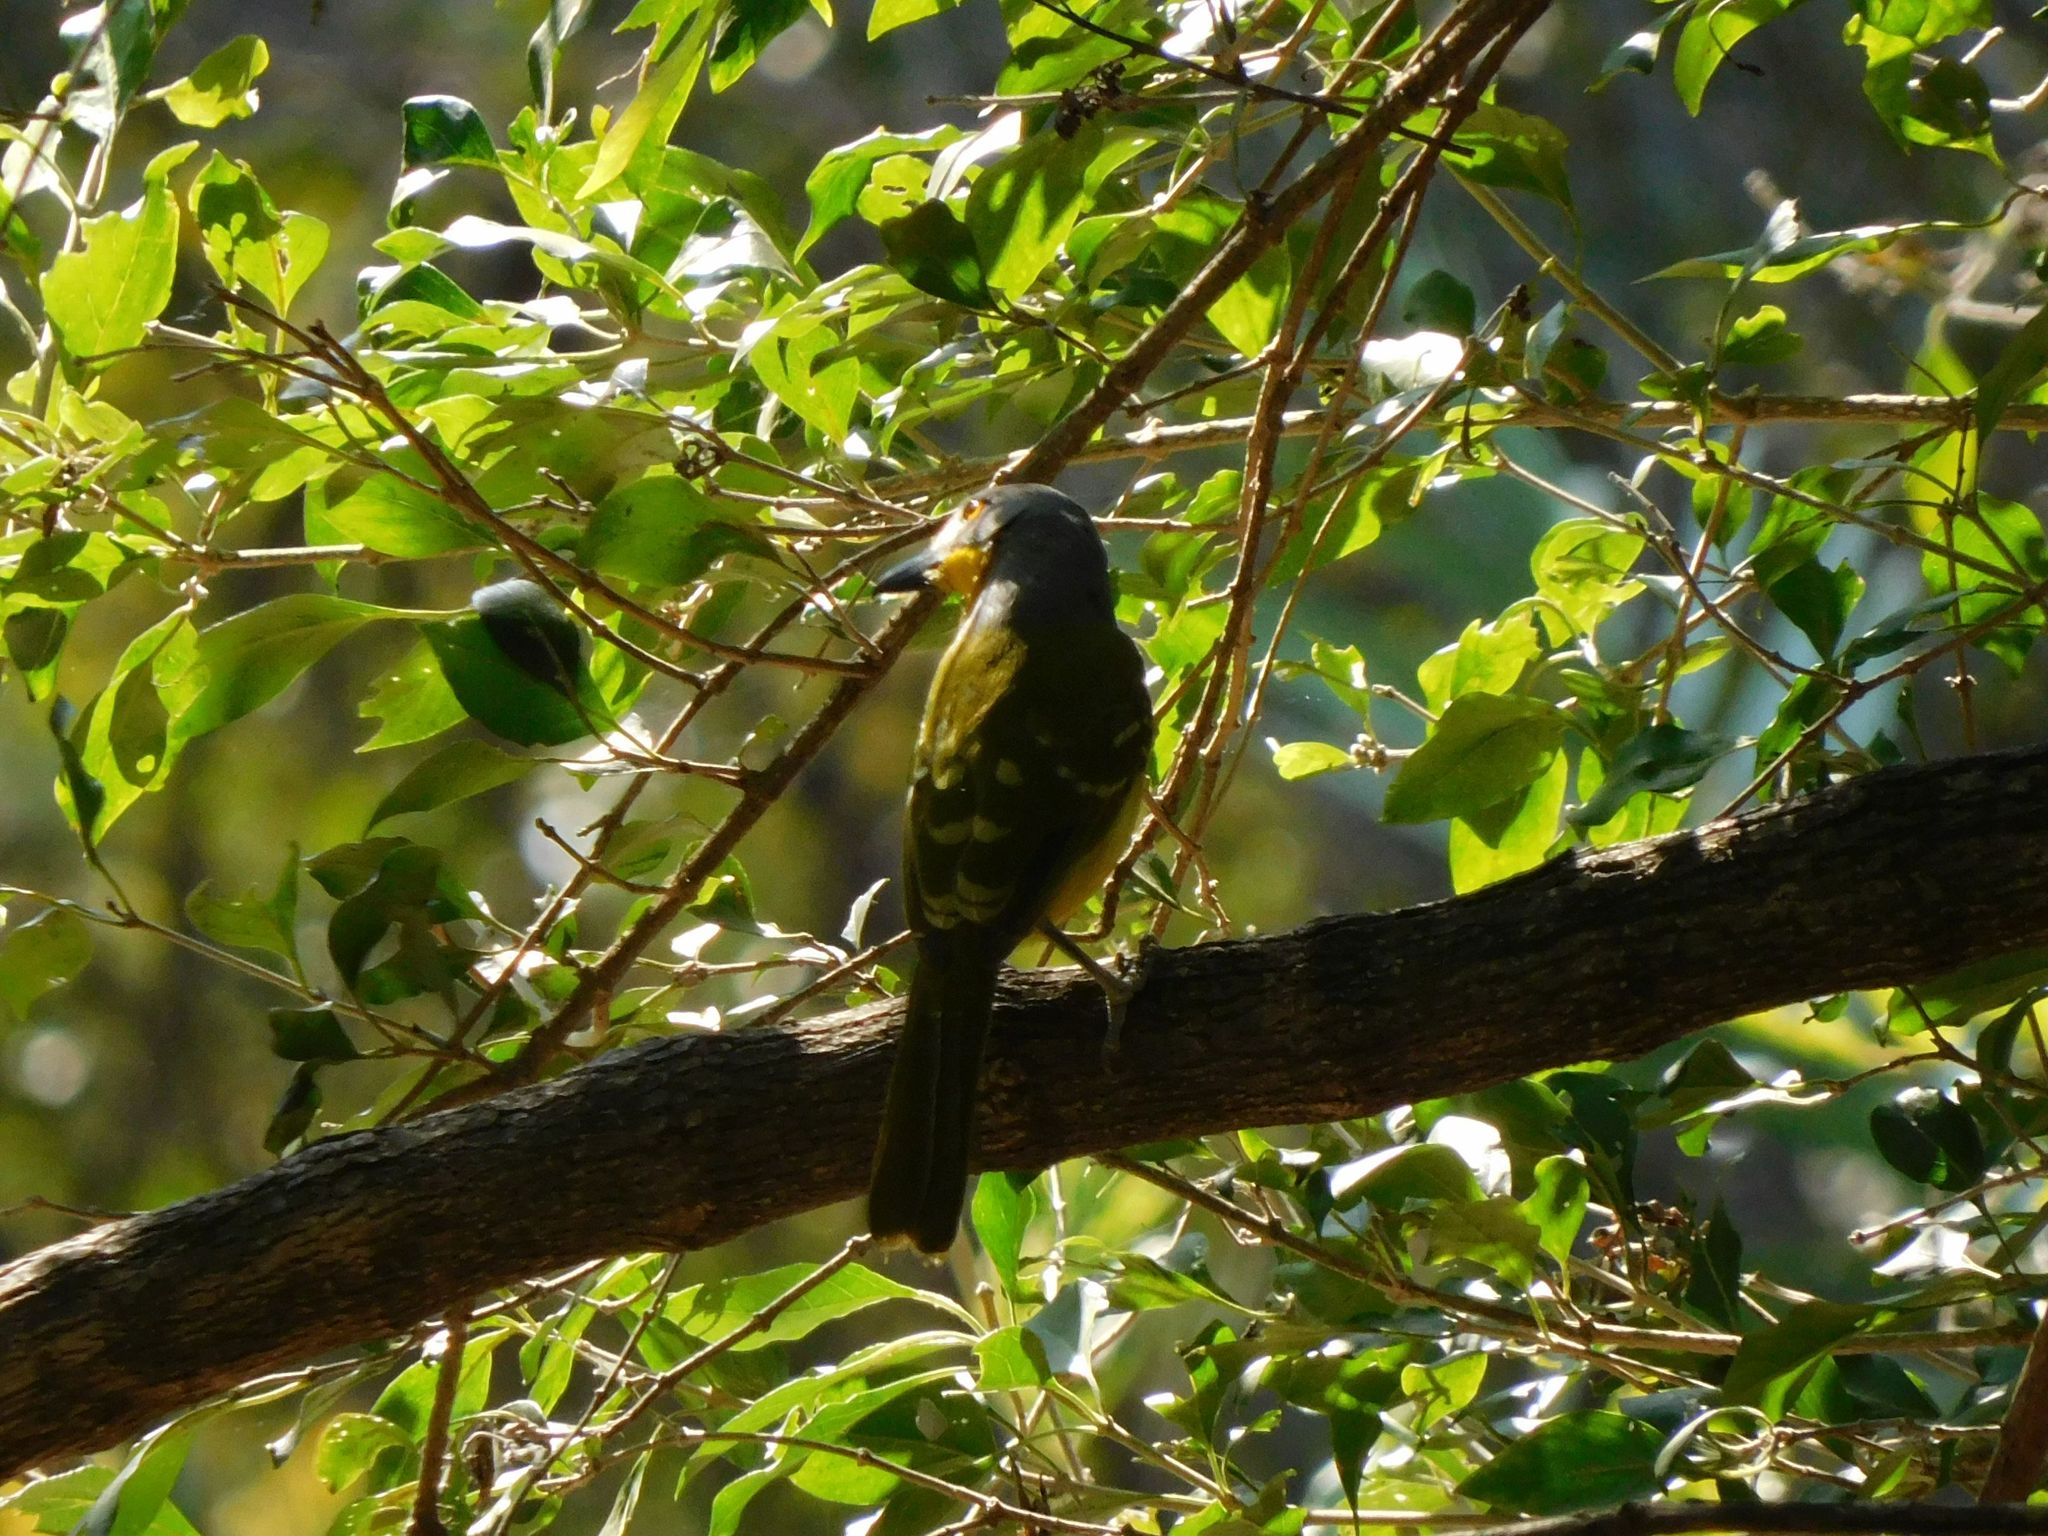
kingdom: Animalia
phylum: Chordata
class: Aves
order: Passeriformes
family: Malaconotidae
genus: Malaconotus
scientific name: Malaconotus blanchoti
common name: Grey-headed bushshrike
